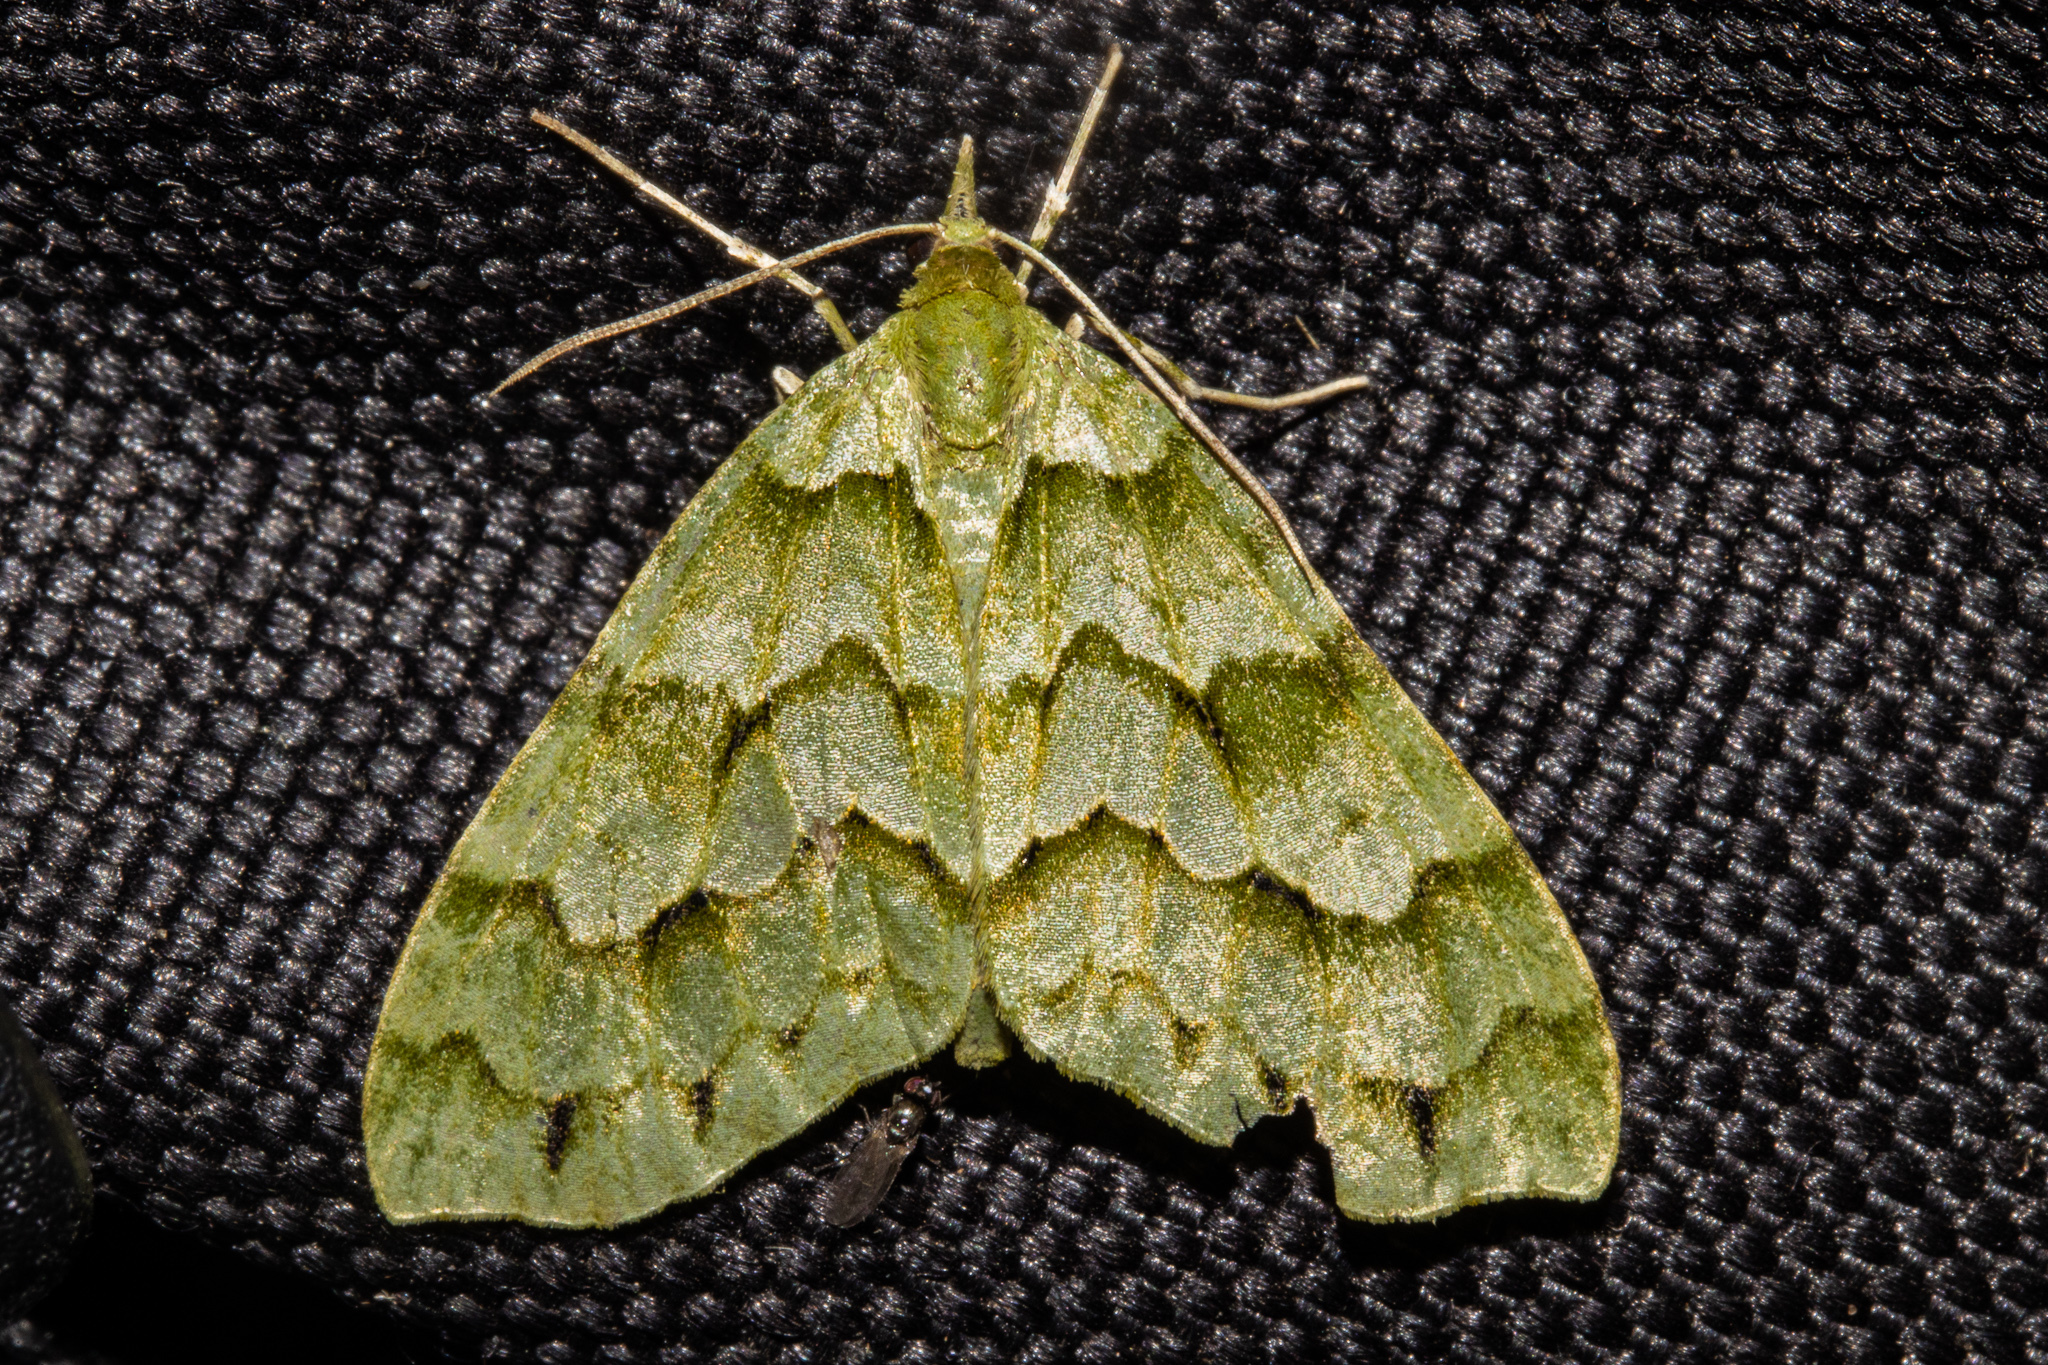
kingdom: Animalia
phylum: Arthropoda
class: Insecta
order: Lepidoptera
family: Geometridae
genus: Tatosoma
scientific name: Tatosoma lestevata
